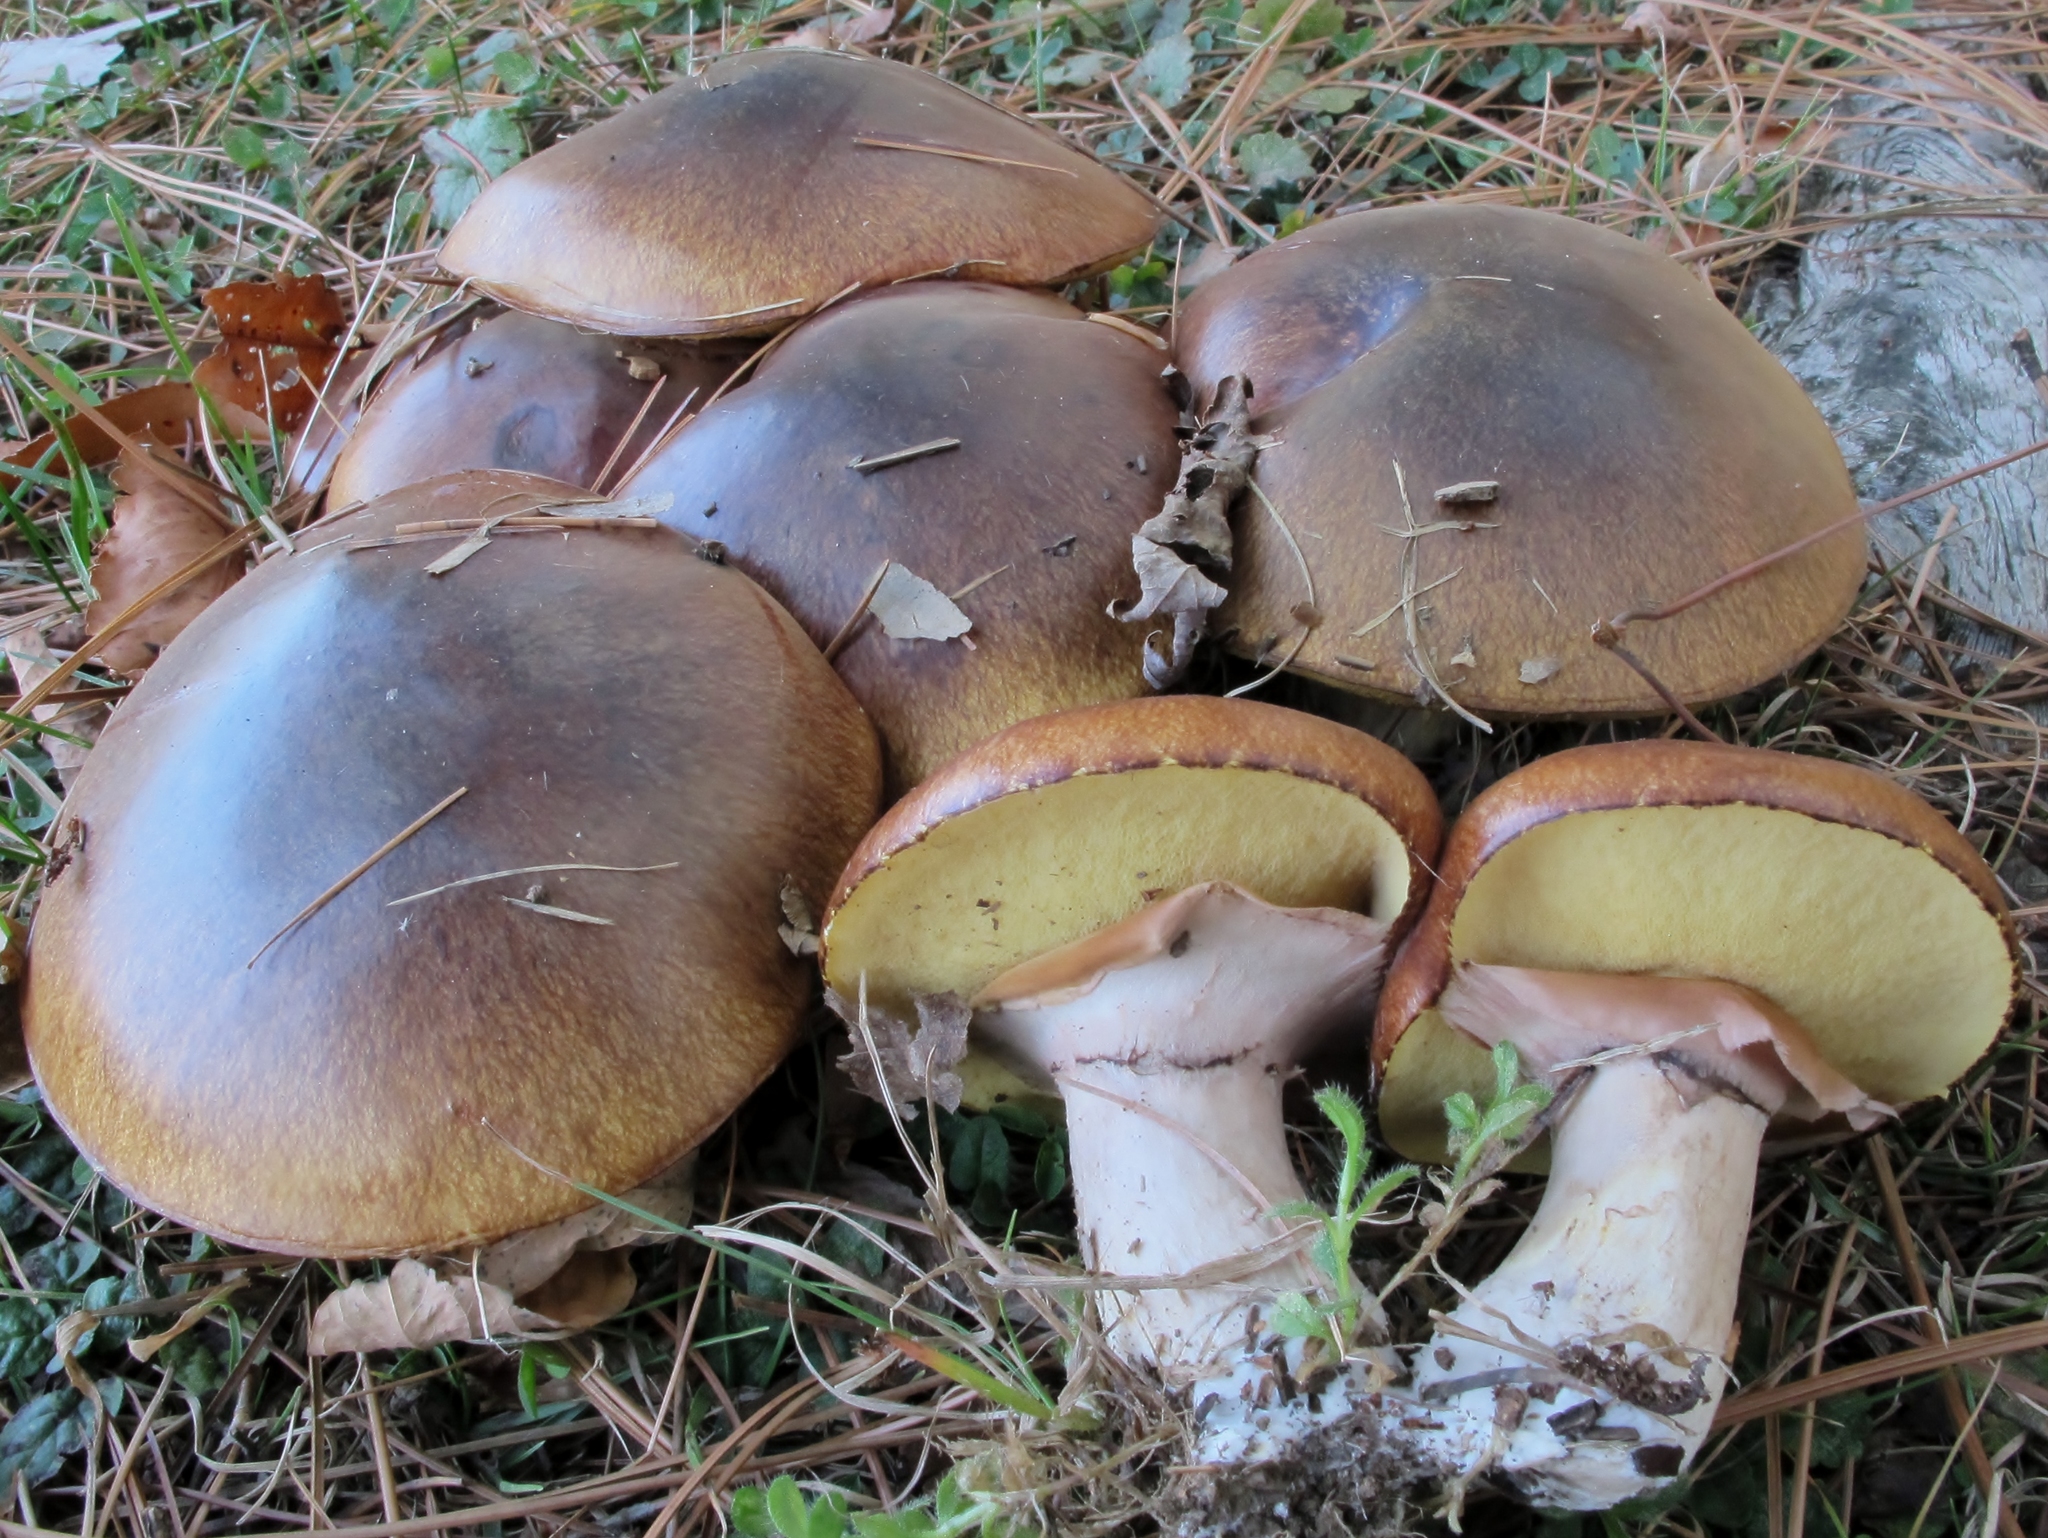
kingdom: Fungi
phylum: Basidiomycota
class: Agaricomycetes
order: Boletales
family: Suillaceae
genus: Suillus
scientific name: Suillus luteus
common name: Slippery jack
